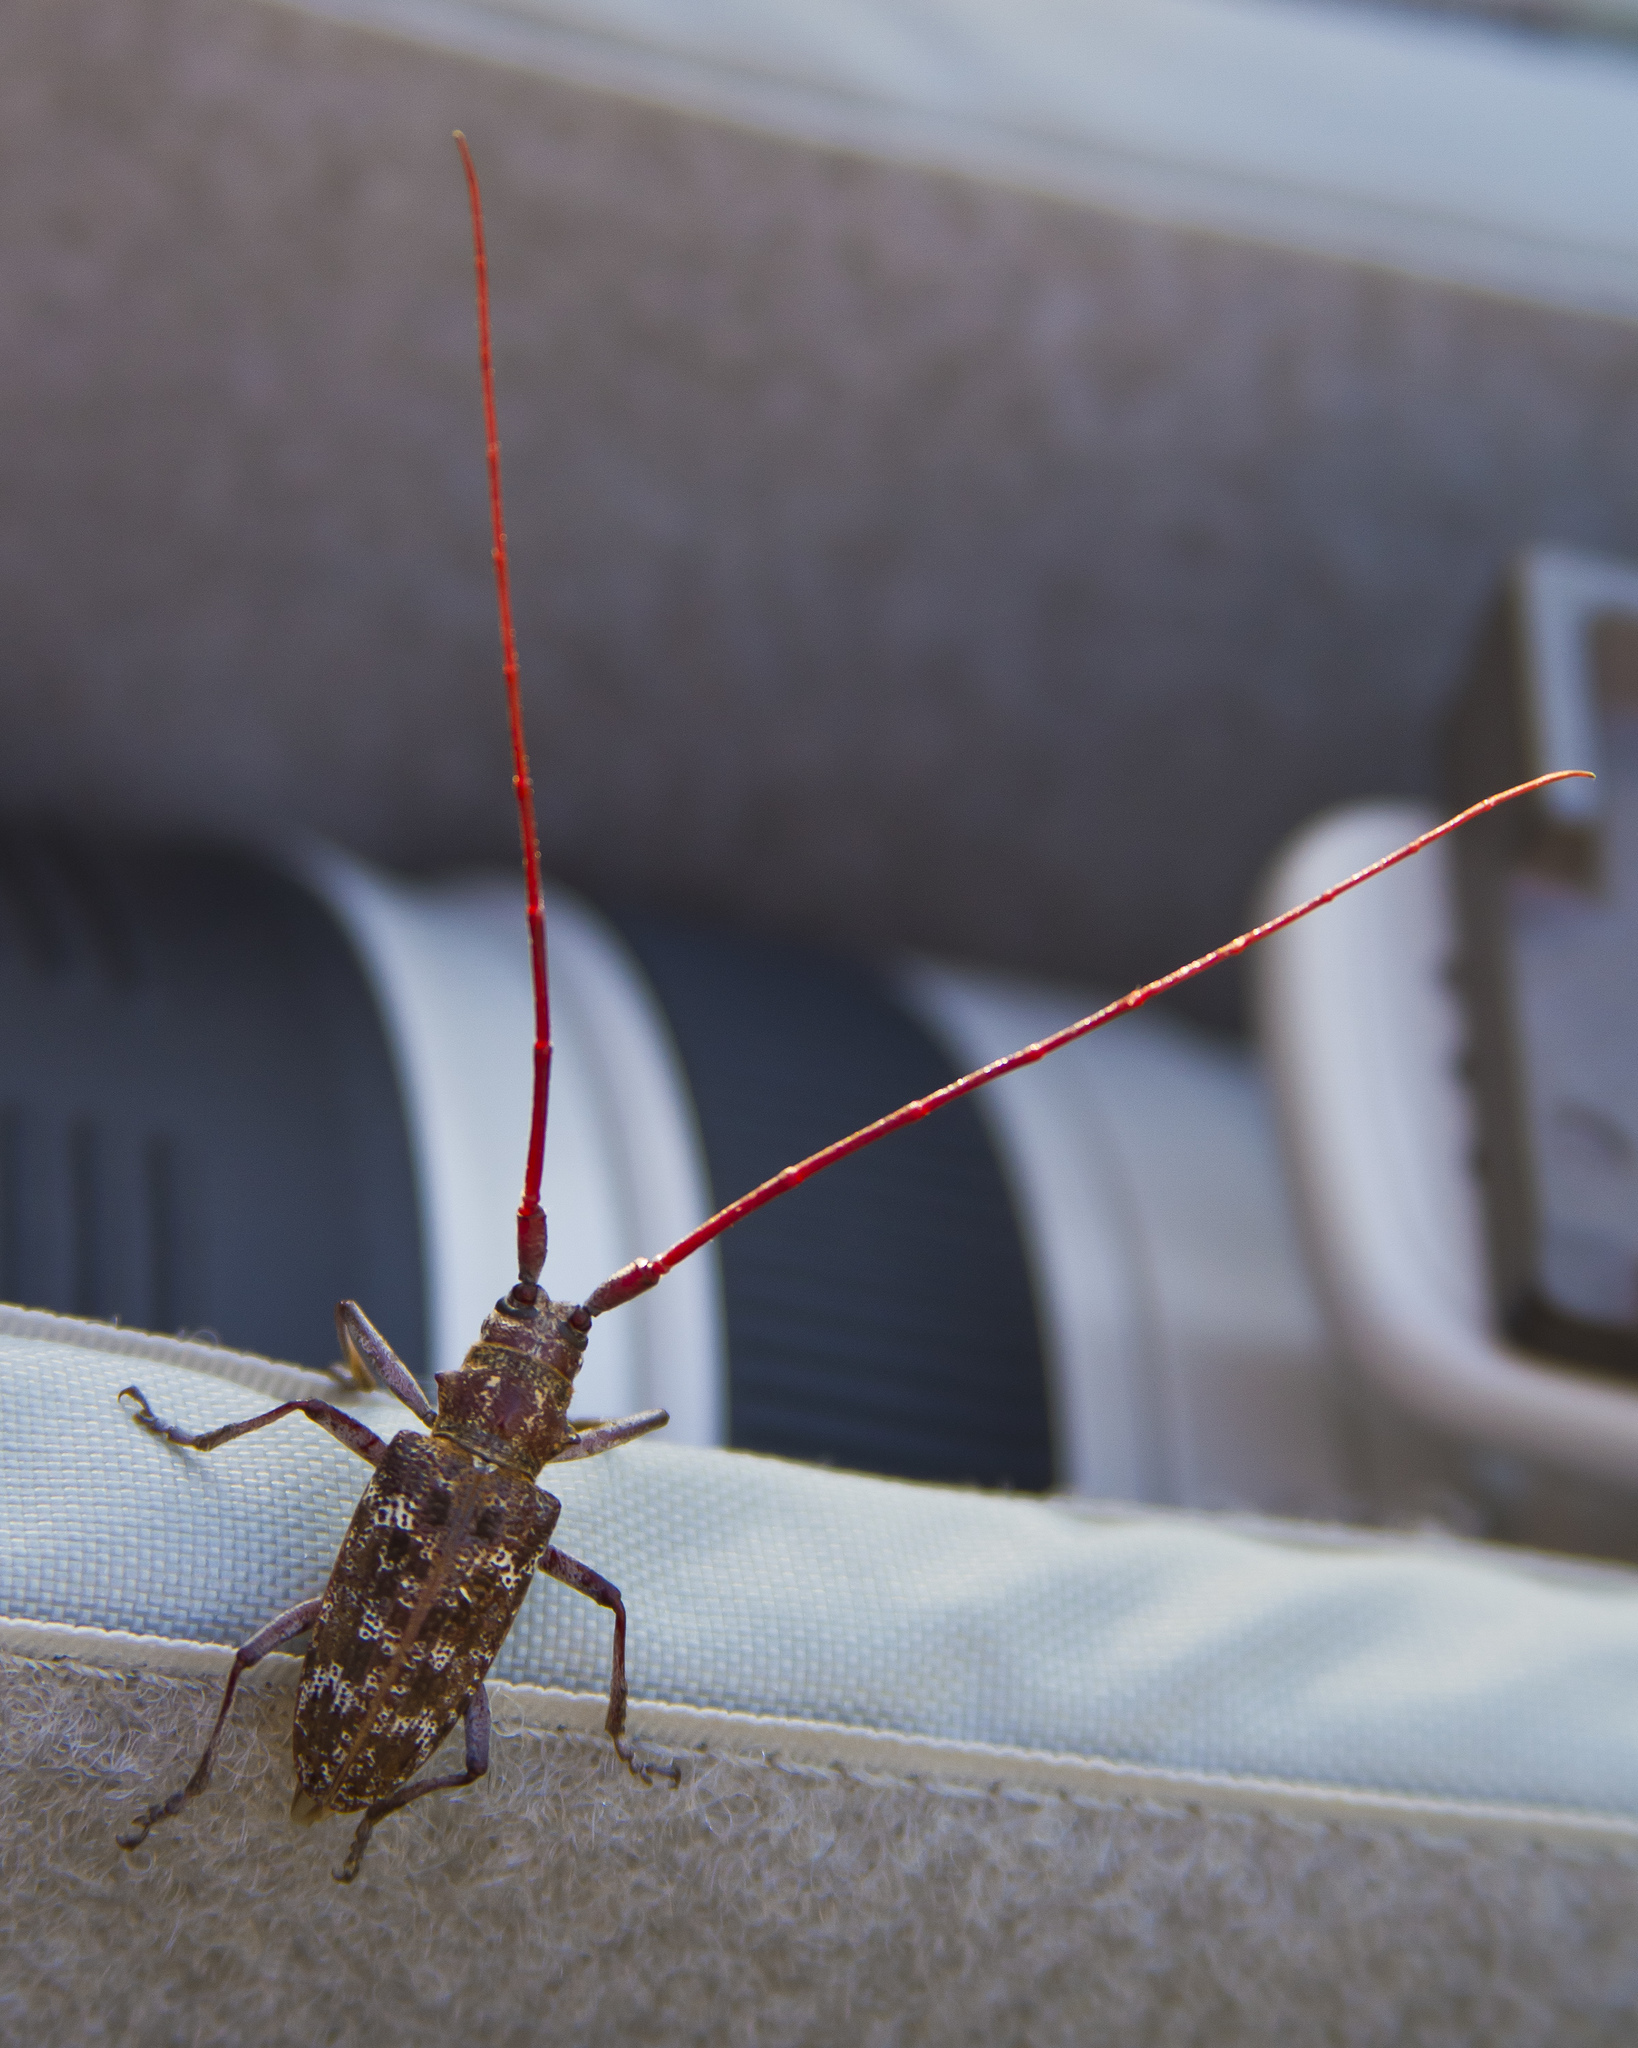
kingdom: Animalia
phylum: Arthropoda
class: Insecta
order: Coleoptera
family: Cerambycidae
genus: Monochamus
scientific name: Monochamus obtusus
